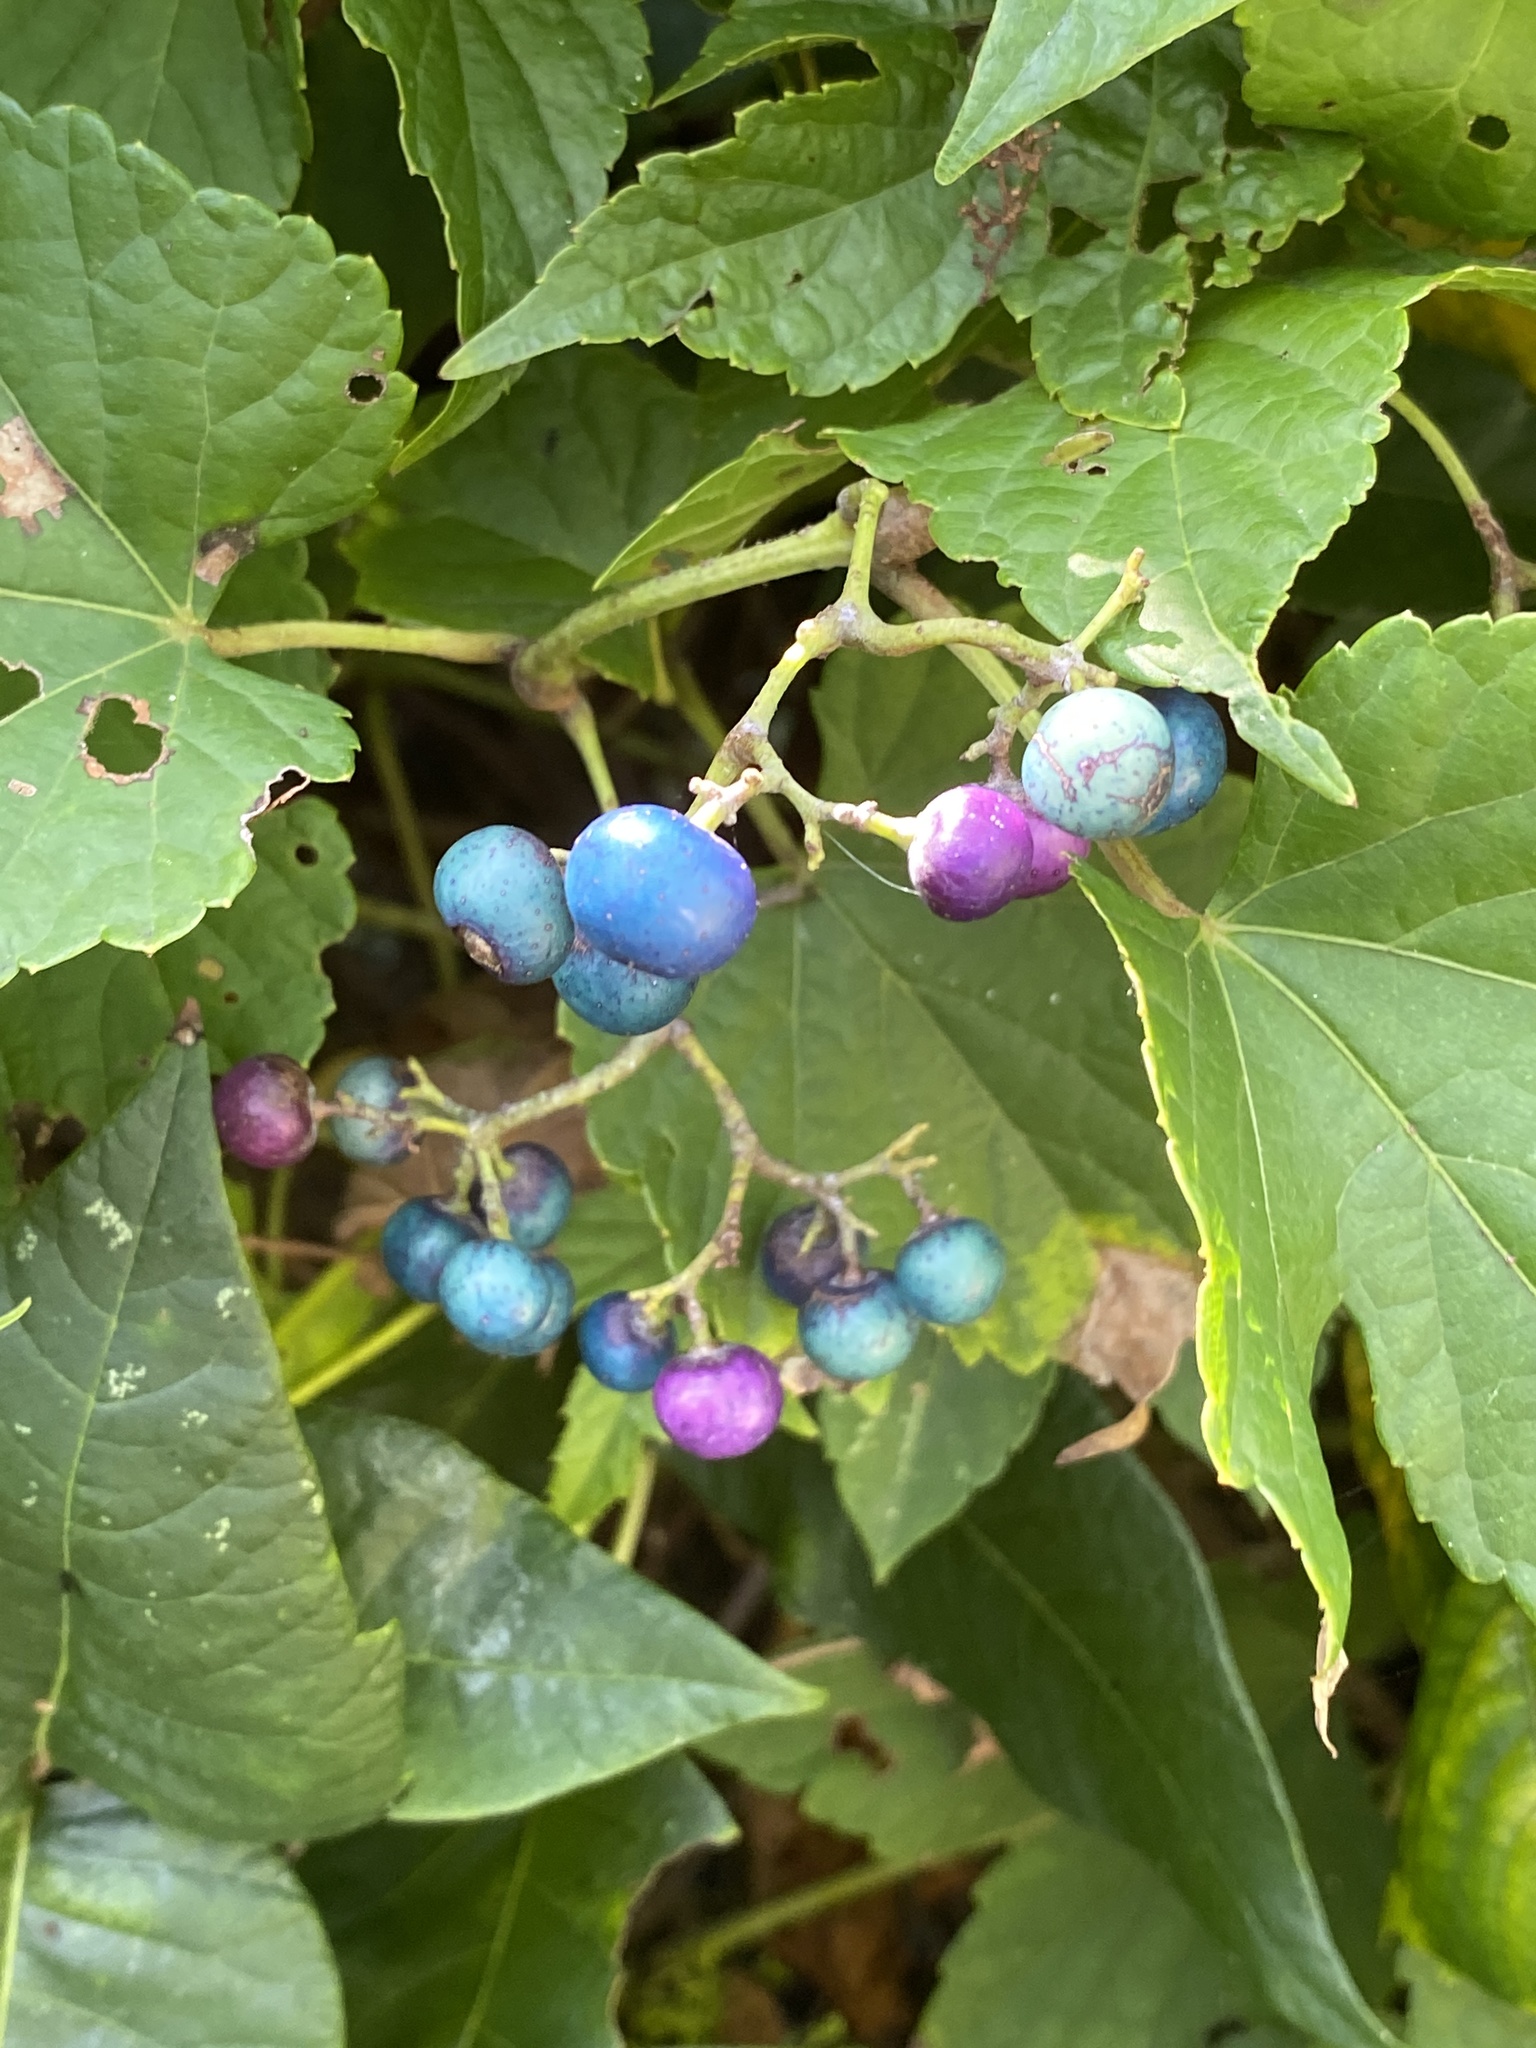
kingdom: Plantae
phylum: Tracheophyta
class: Magnoliopsida
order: Vitales
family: Vitaceae
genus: Ampelopsis
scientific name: Ampelopsis glandulosa
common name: Amur peppervine
